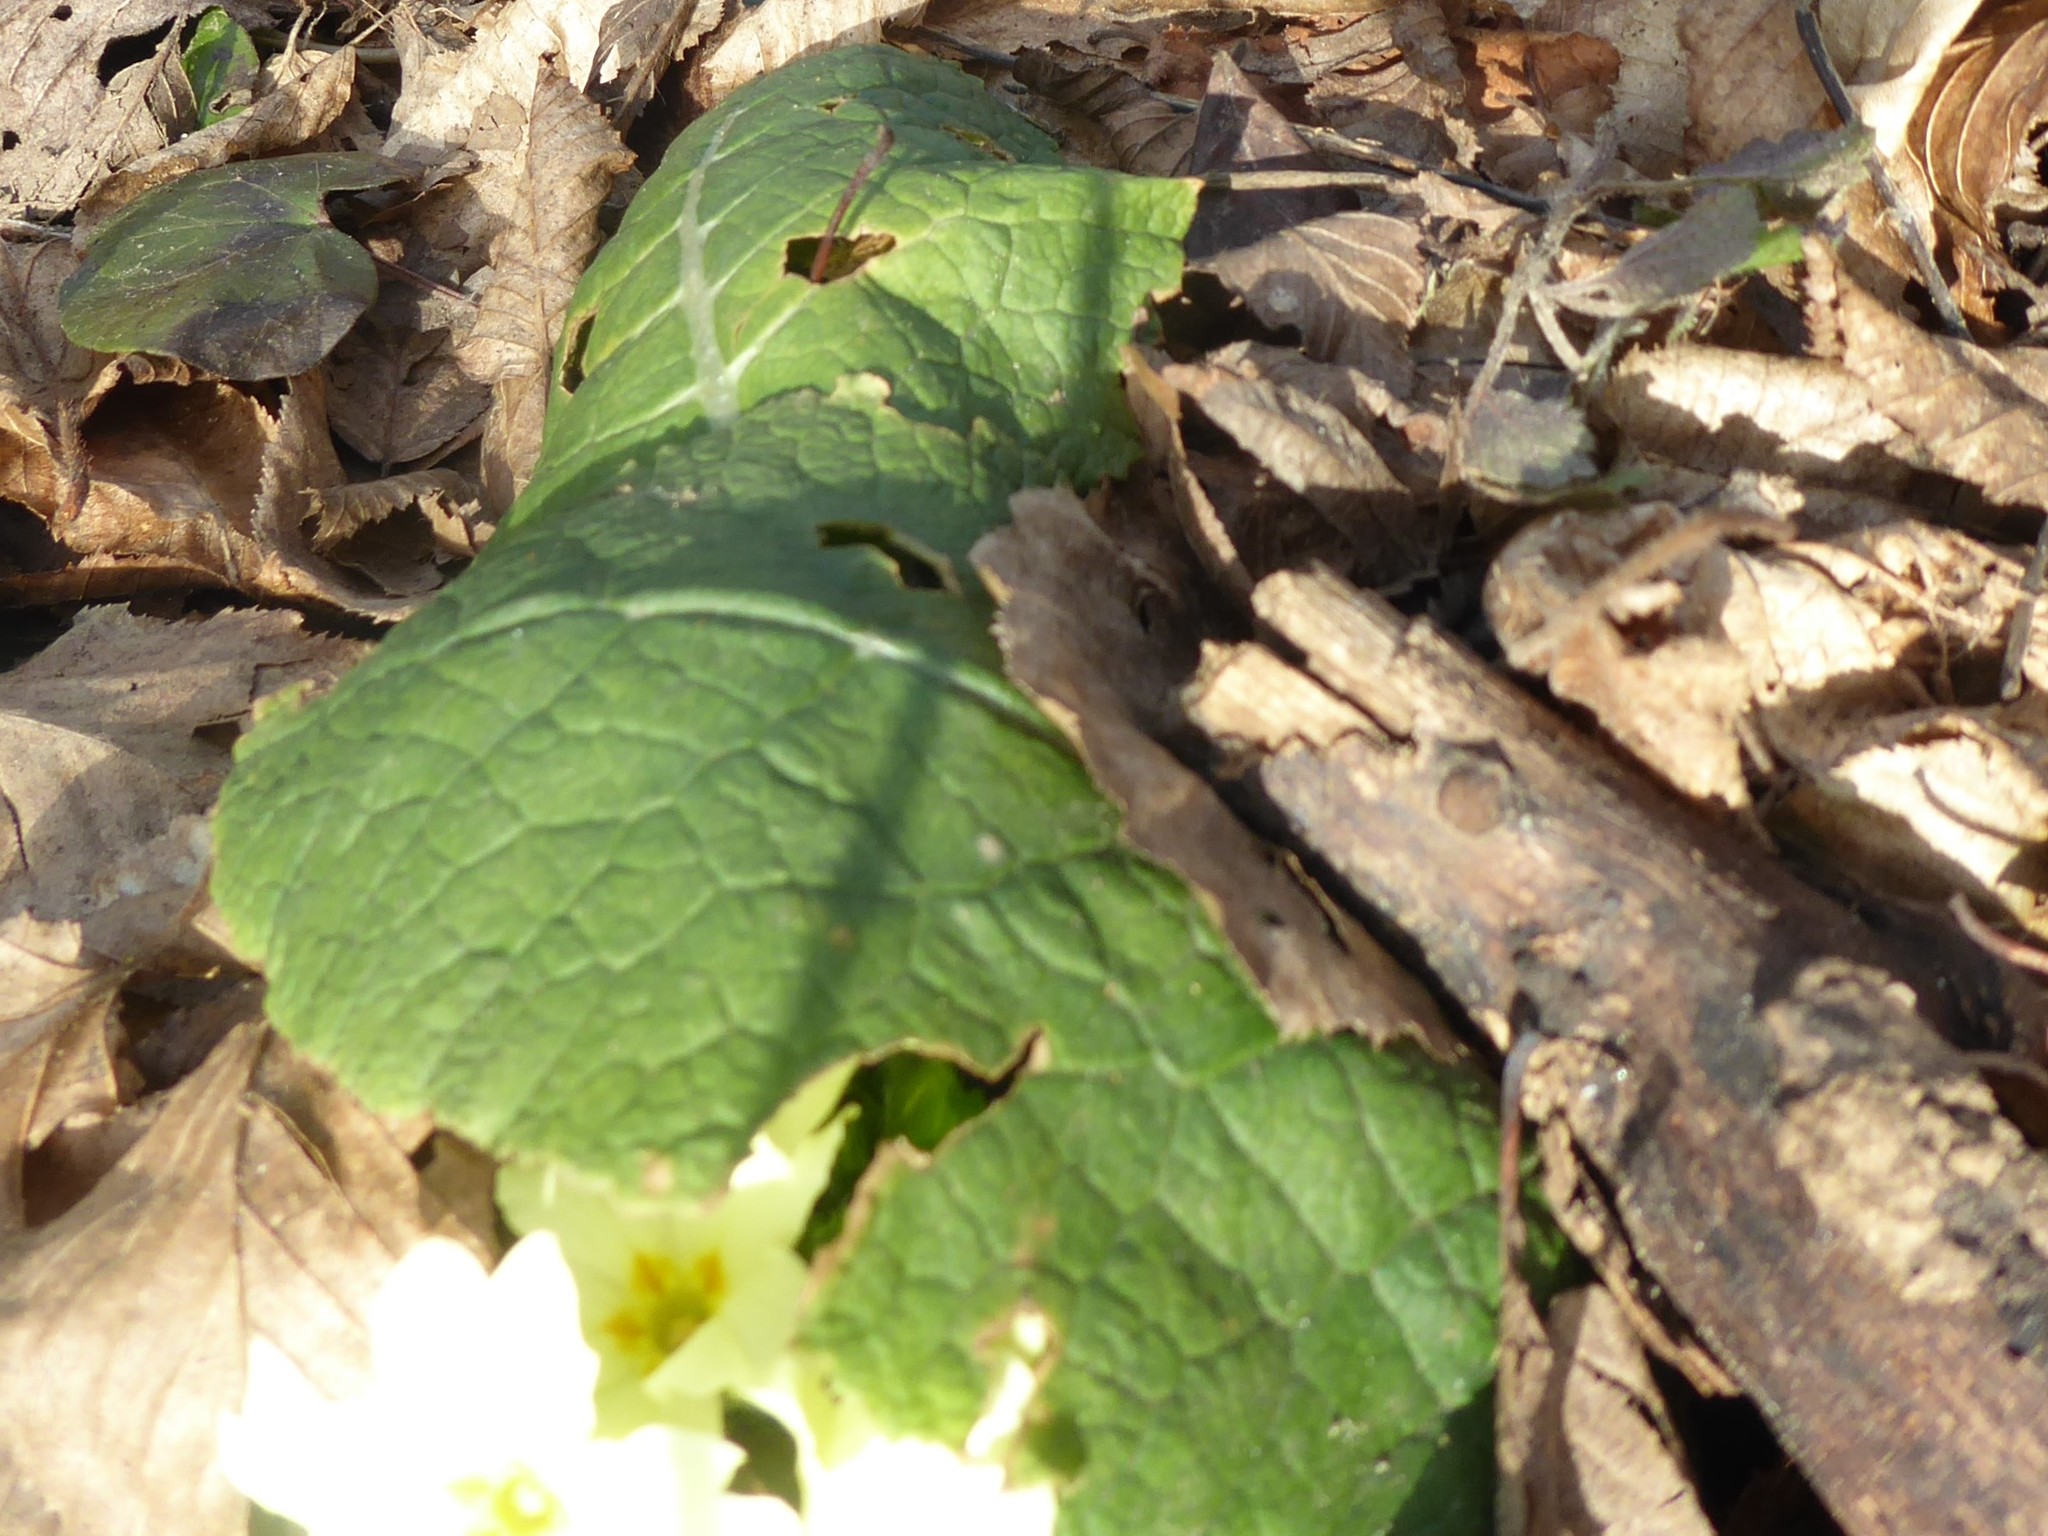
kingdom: Plantae
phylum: Tracheophyta
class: Magnoliopsida
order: Ericales
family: Primulaceae
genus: Primula
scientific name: Primula vulgaris
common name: Primrose
